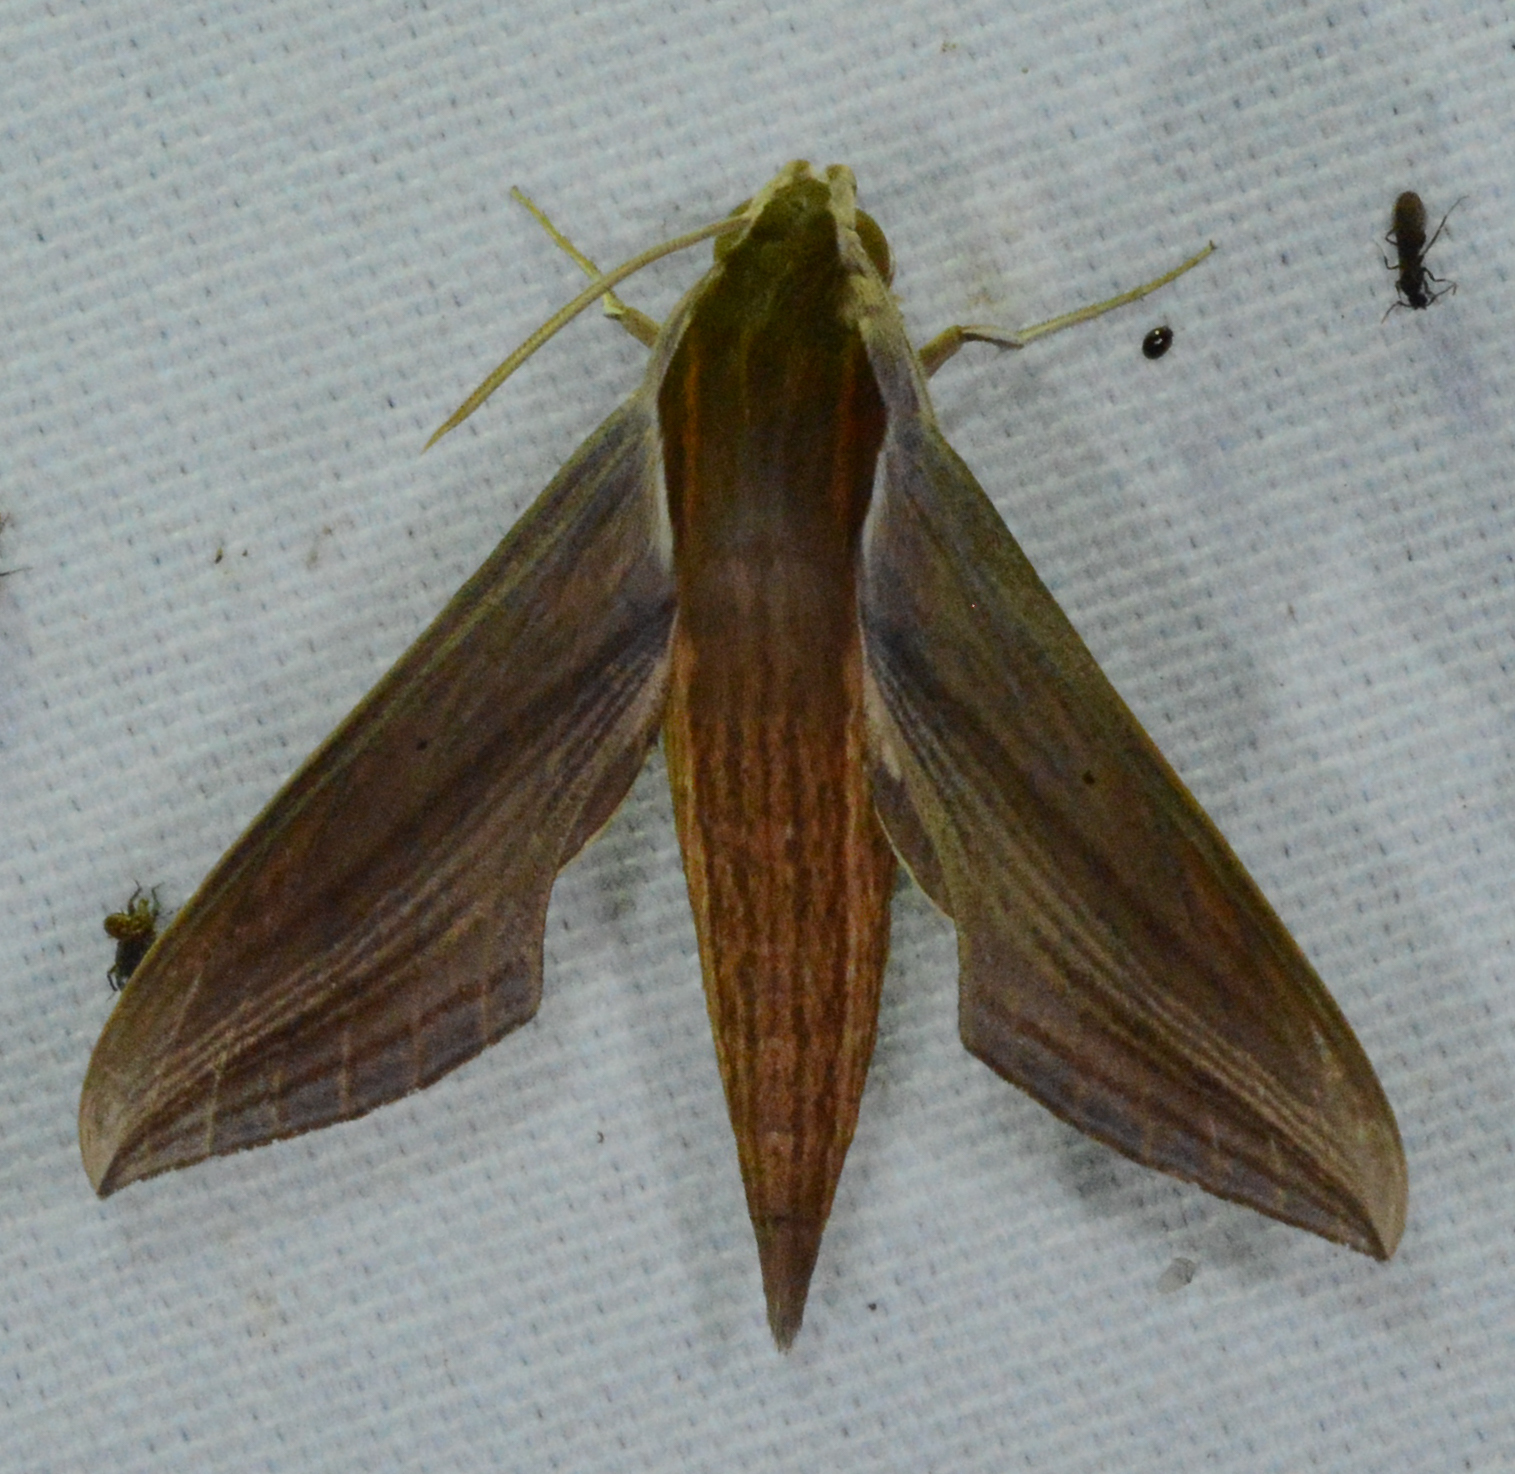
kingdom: Animalia
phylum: Arthropoda
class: Insecta
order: Lepidoptera
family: Sphingidae
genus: Xylophanes
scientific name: Xylophanes tersa
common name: Tersa sphinx
